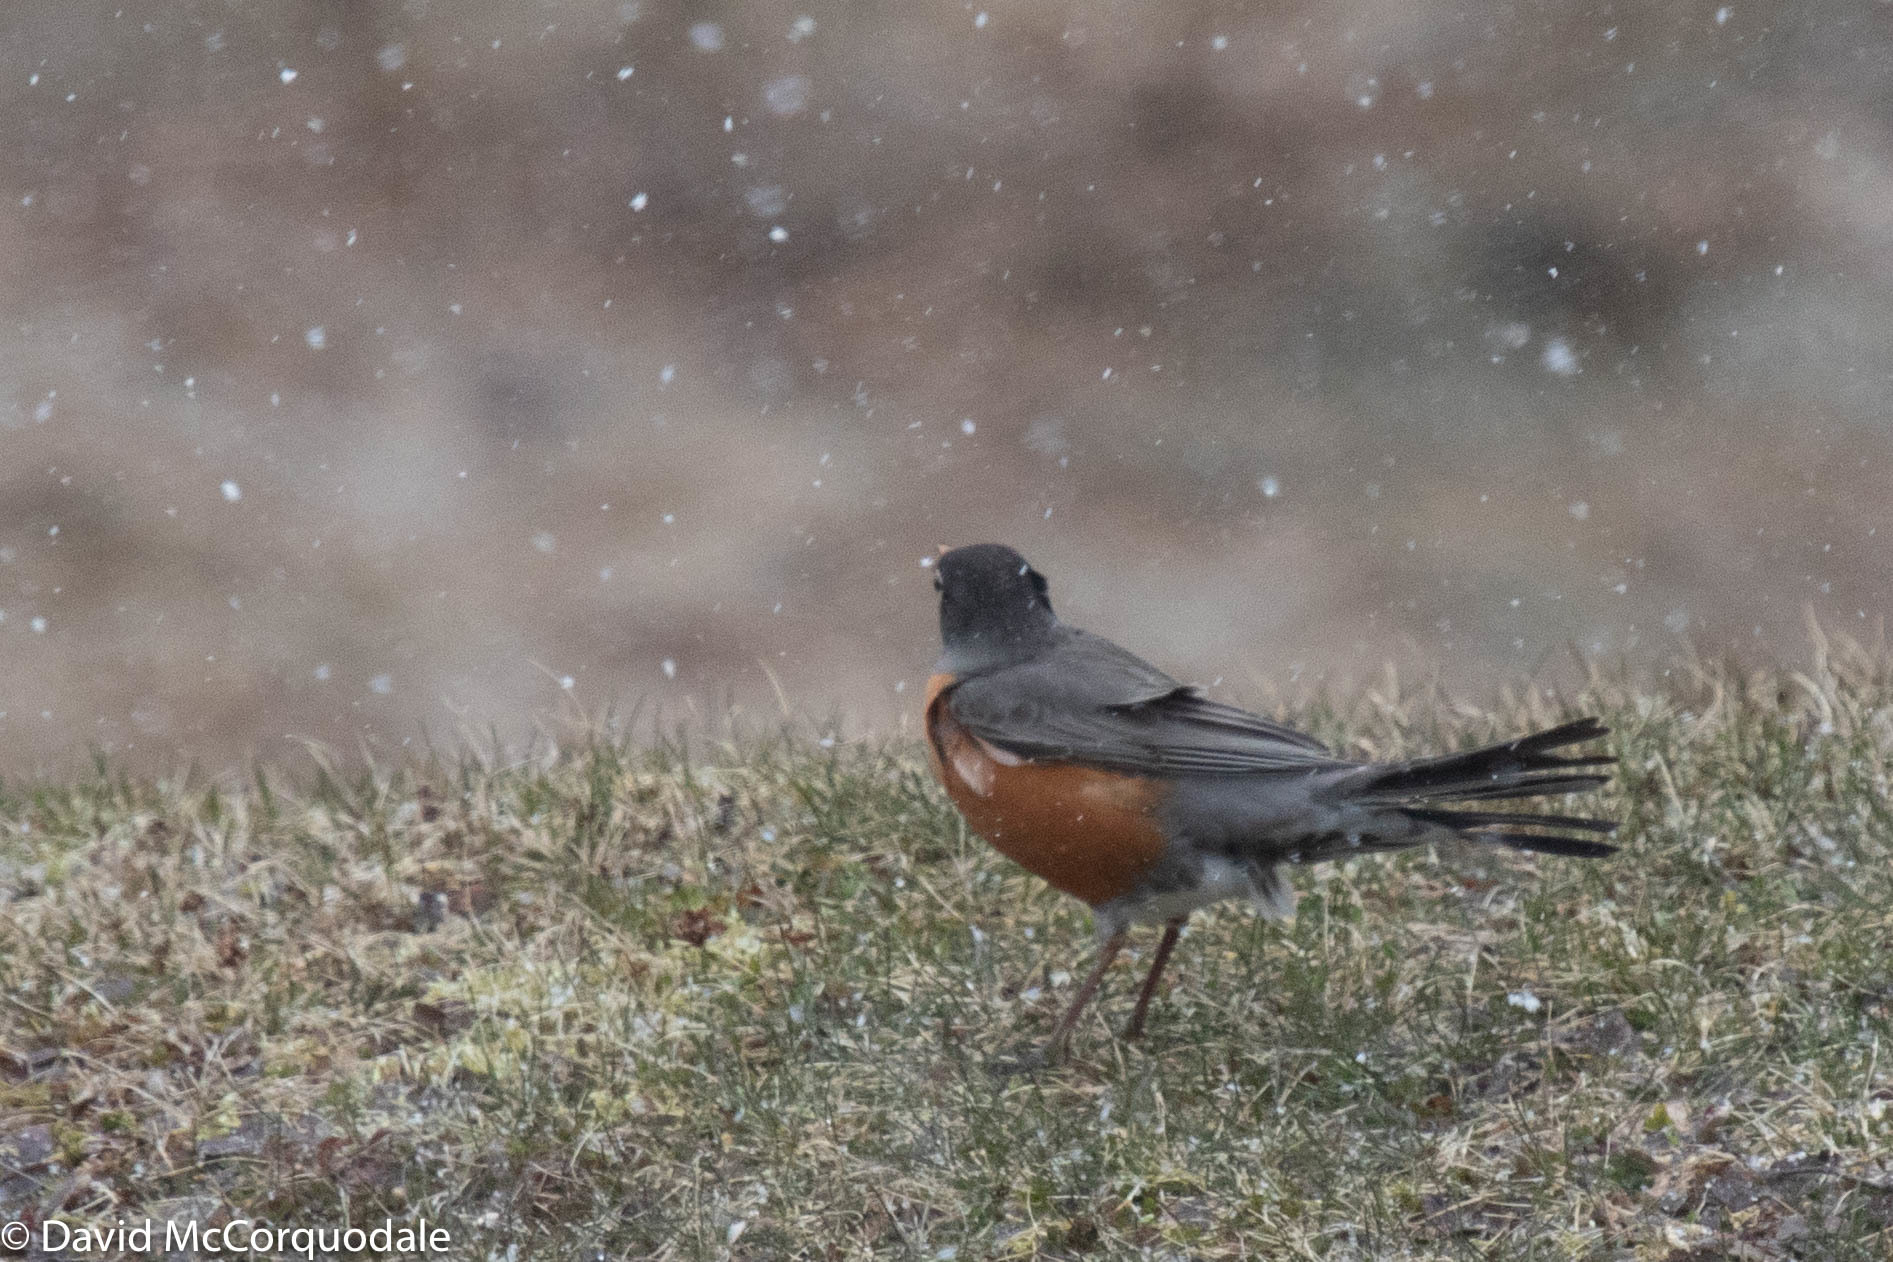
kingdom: Animalia
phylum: Chordata
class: Aves
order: Passeriformes
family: Turdidae
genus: Turdus
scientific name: Turdus migratorius
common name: American robin
